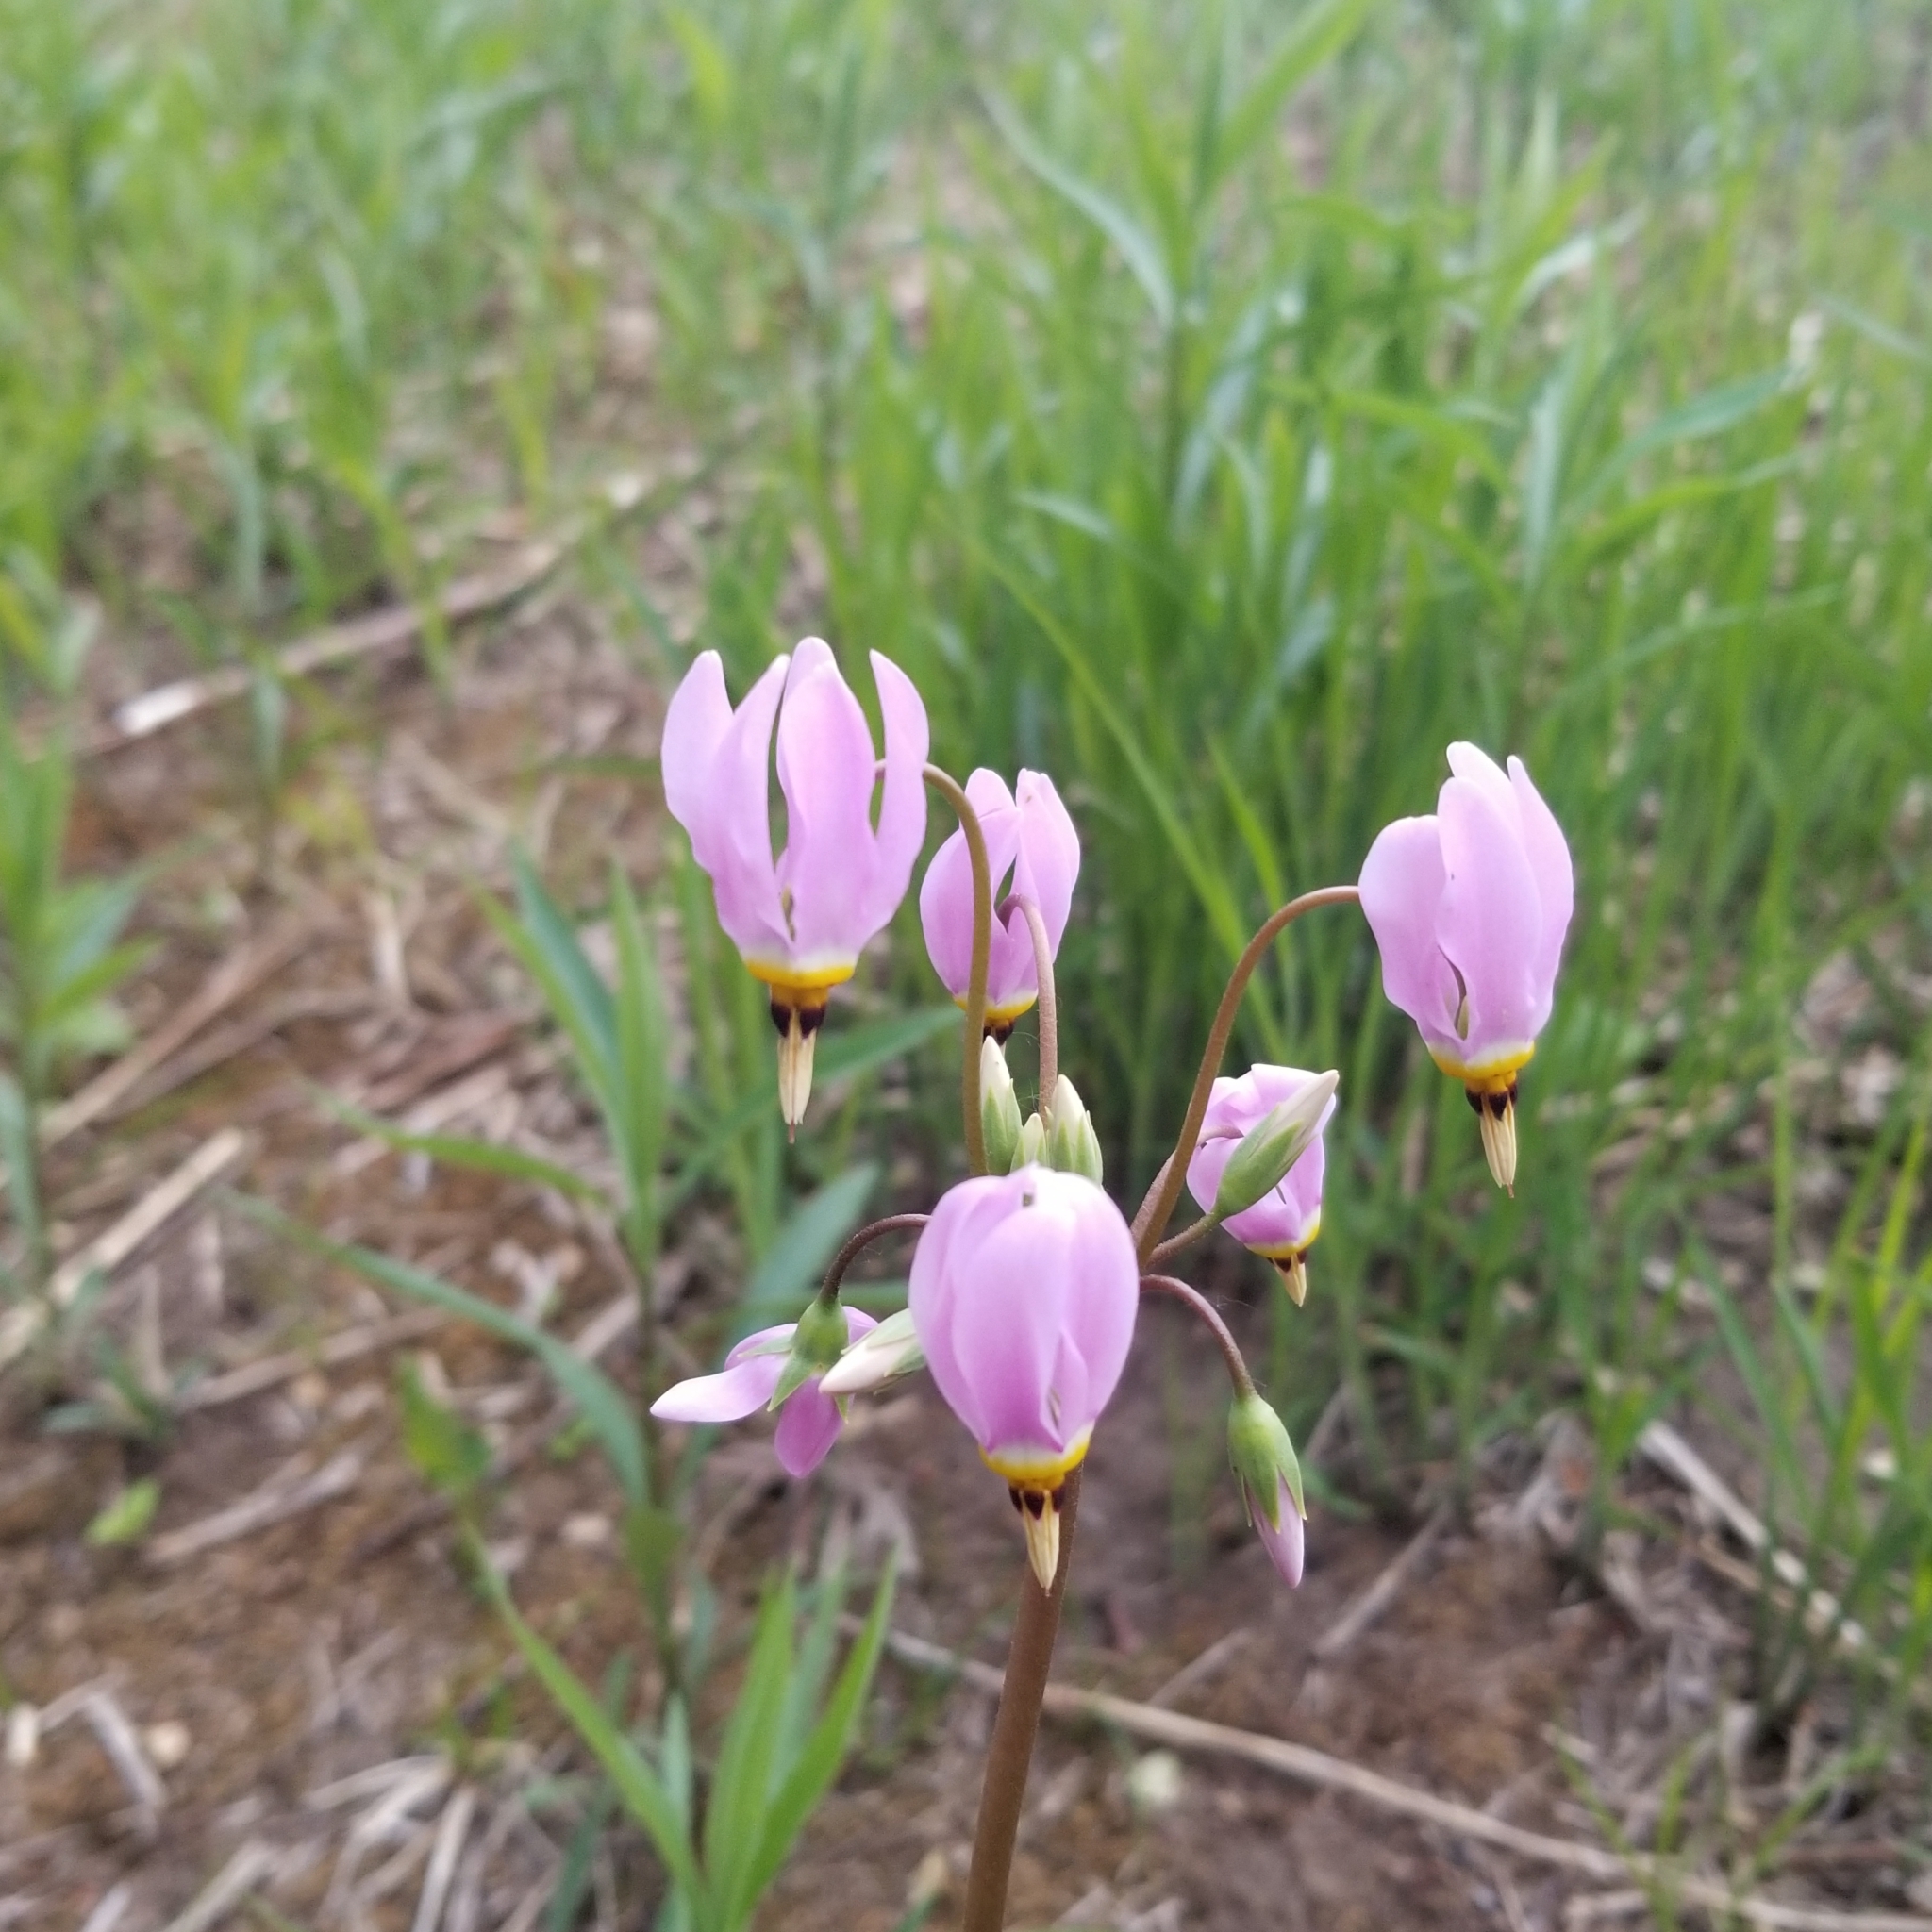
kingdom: Plantae
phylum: Tracheophyta
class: Magnoliopsida
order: Ericales
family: Primulaceae
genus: Dodecatheon
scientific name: Dodecatheon meadia
